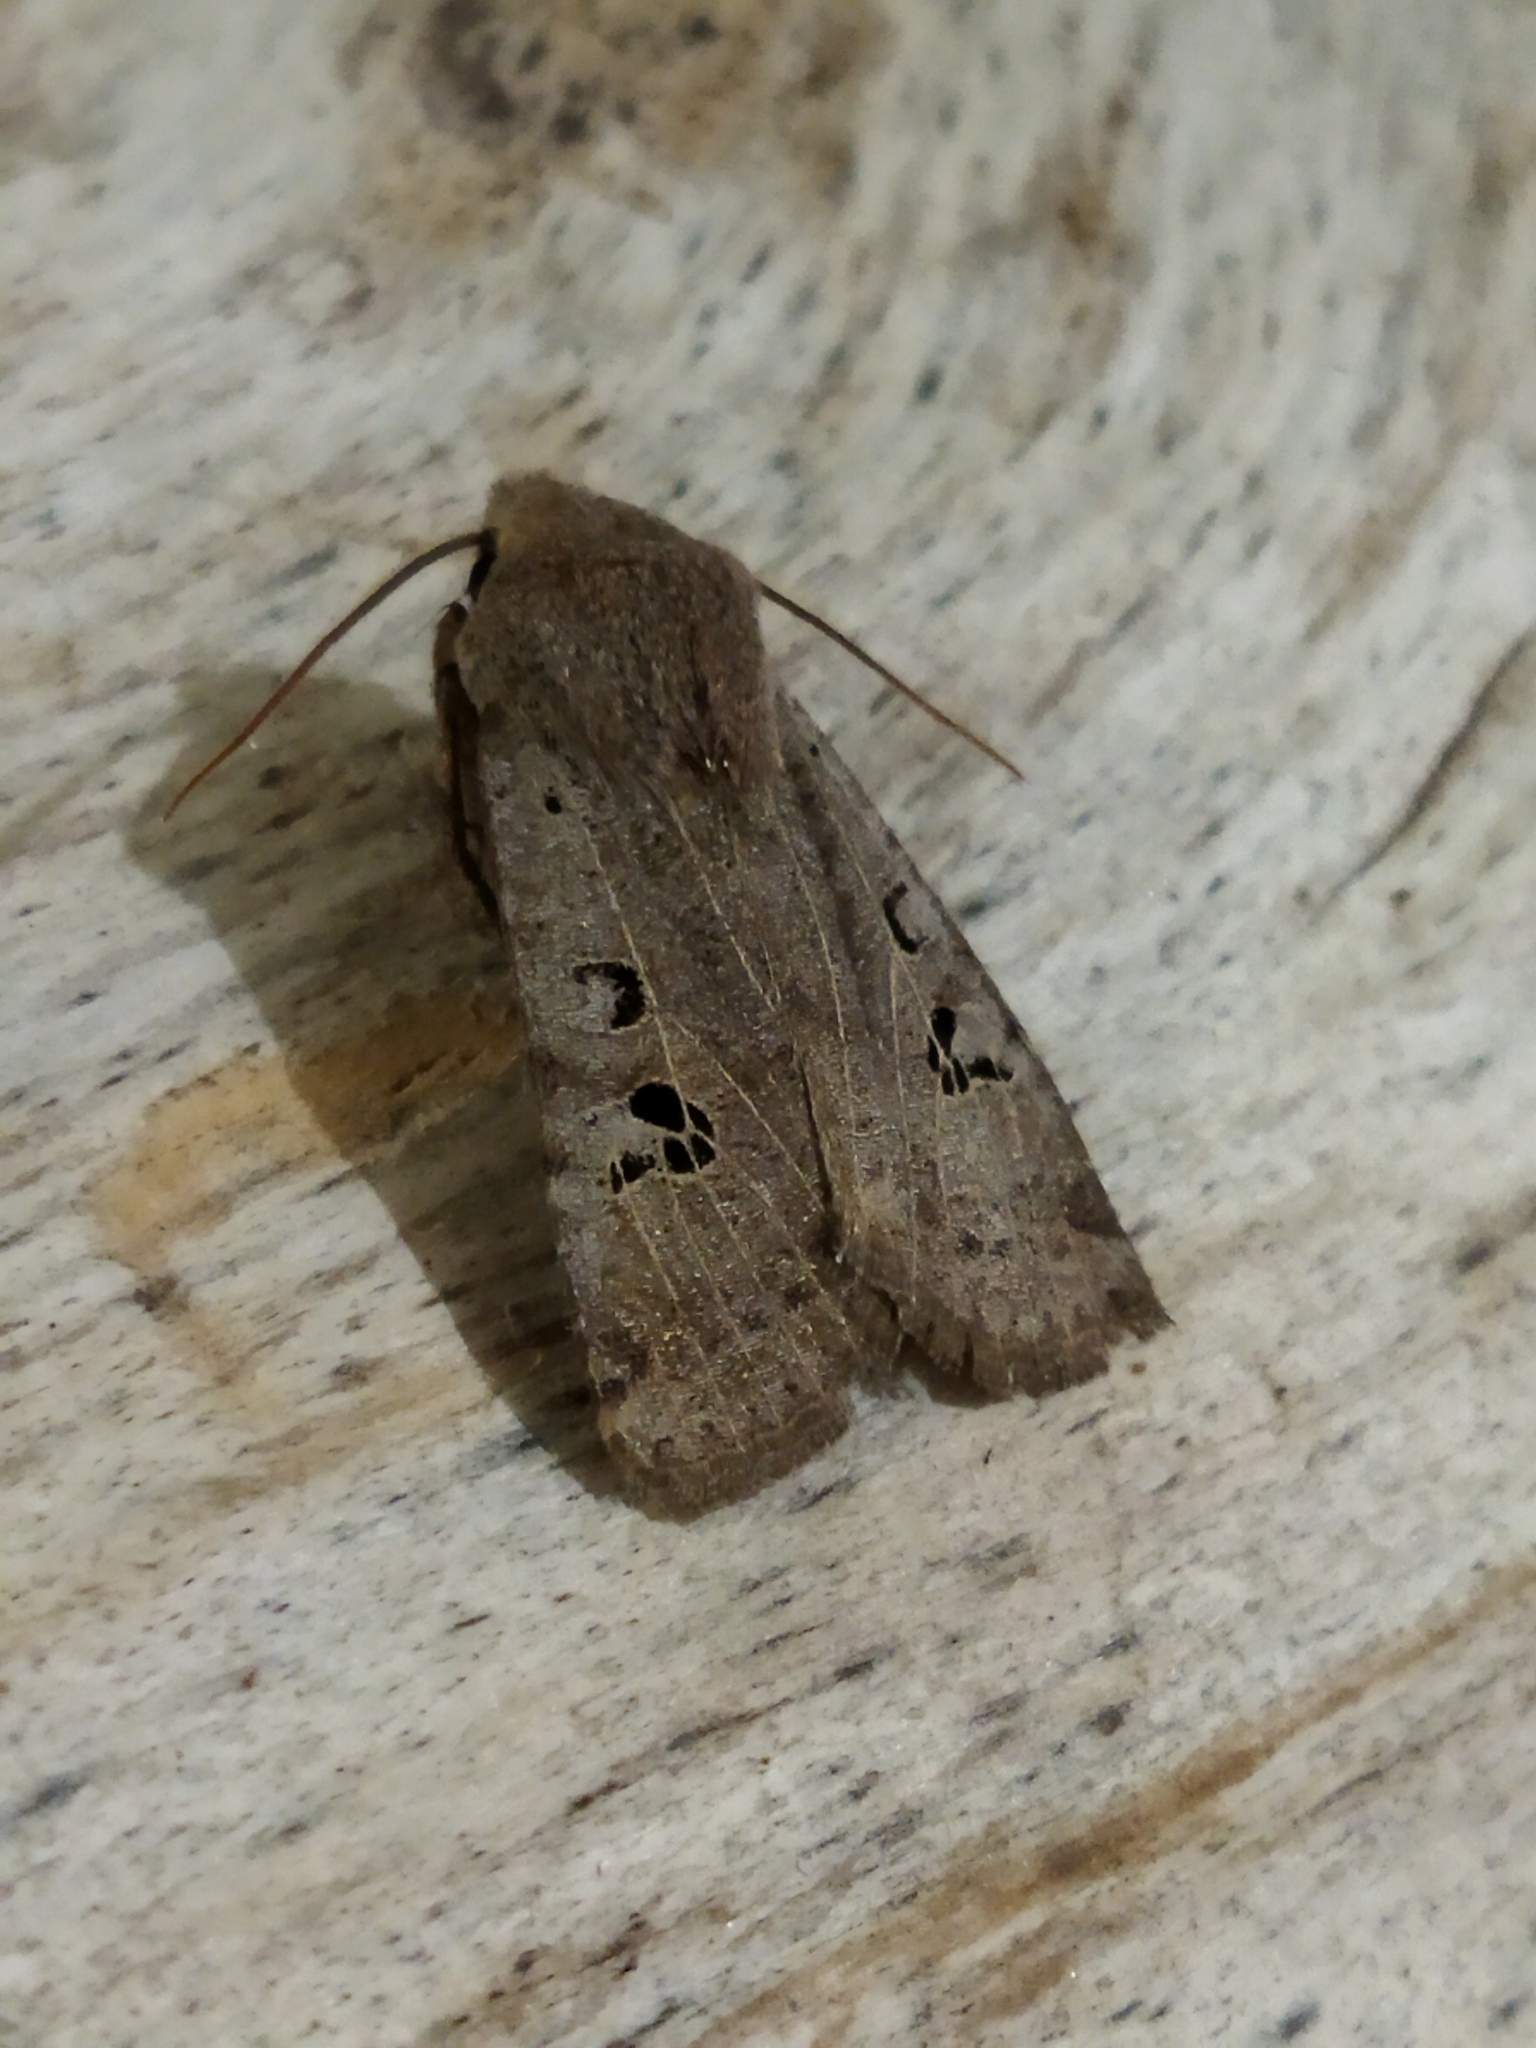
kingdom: Animalia
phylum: Arthropoda
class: Insecta
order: Lepidoptera
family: Noctuidae
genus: Conistra
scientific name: Conistra rubiginosa
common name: Black-spotted chestnut
